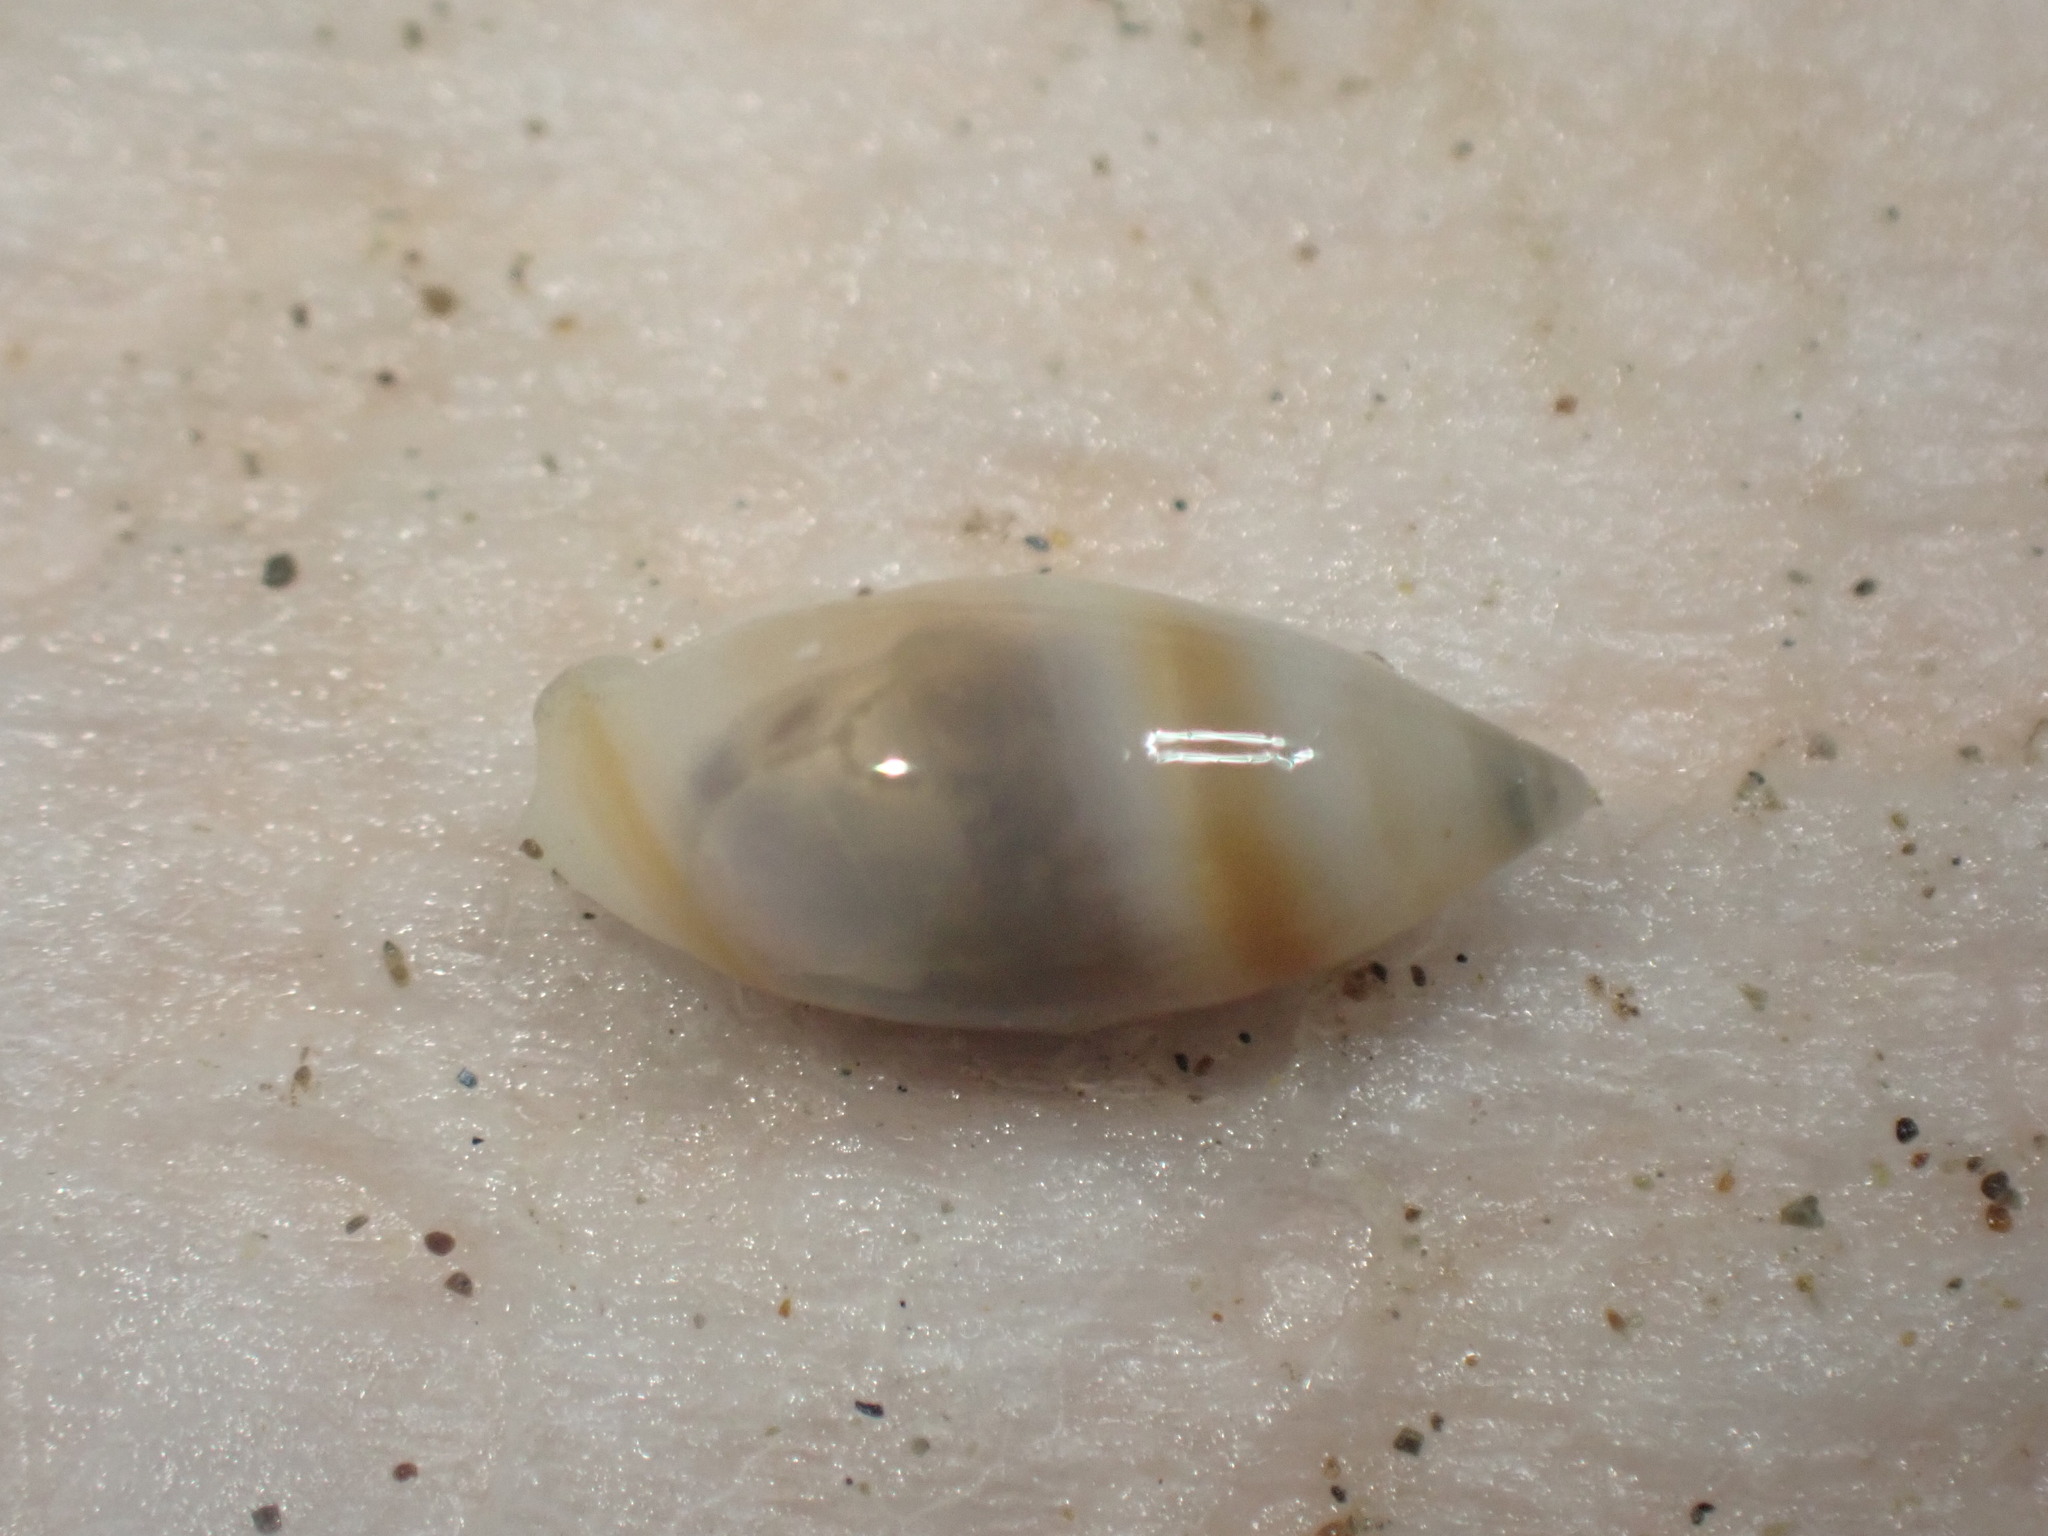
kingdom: Animalia
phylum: Mollusca
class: Gastropoda
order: Neogastropoda
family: Ancillariidae
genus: Amalda
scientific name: Amalda novaezelandiae
